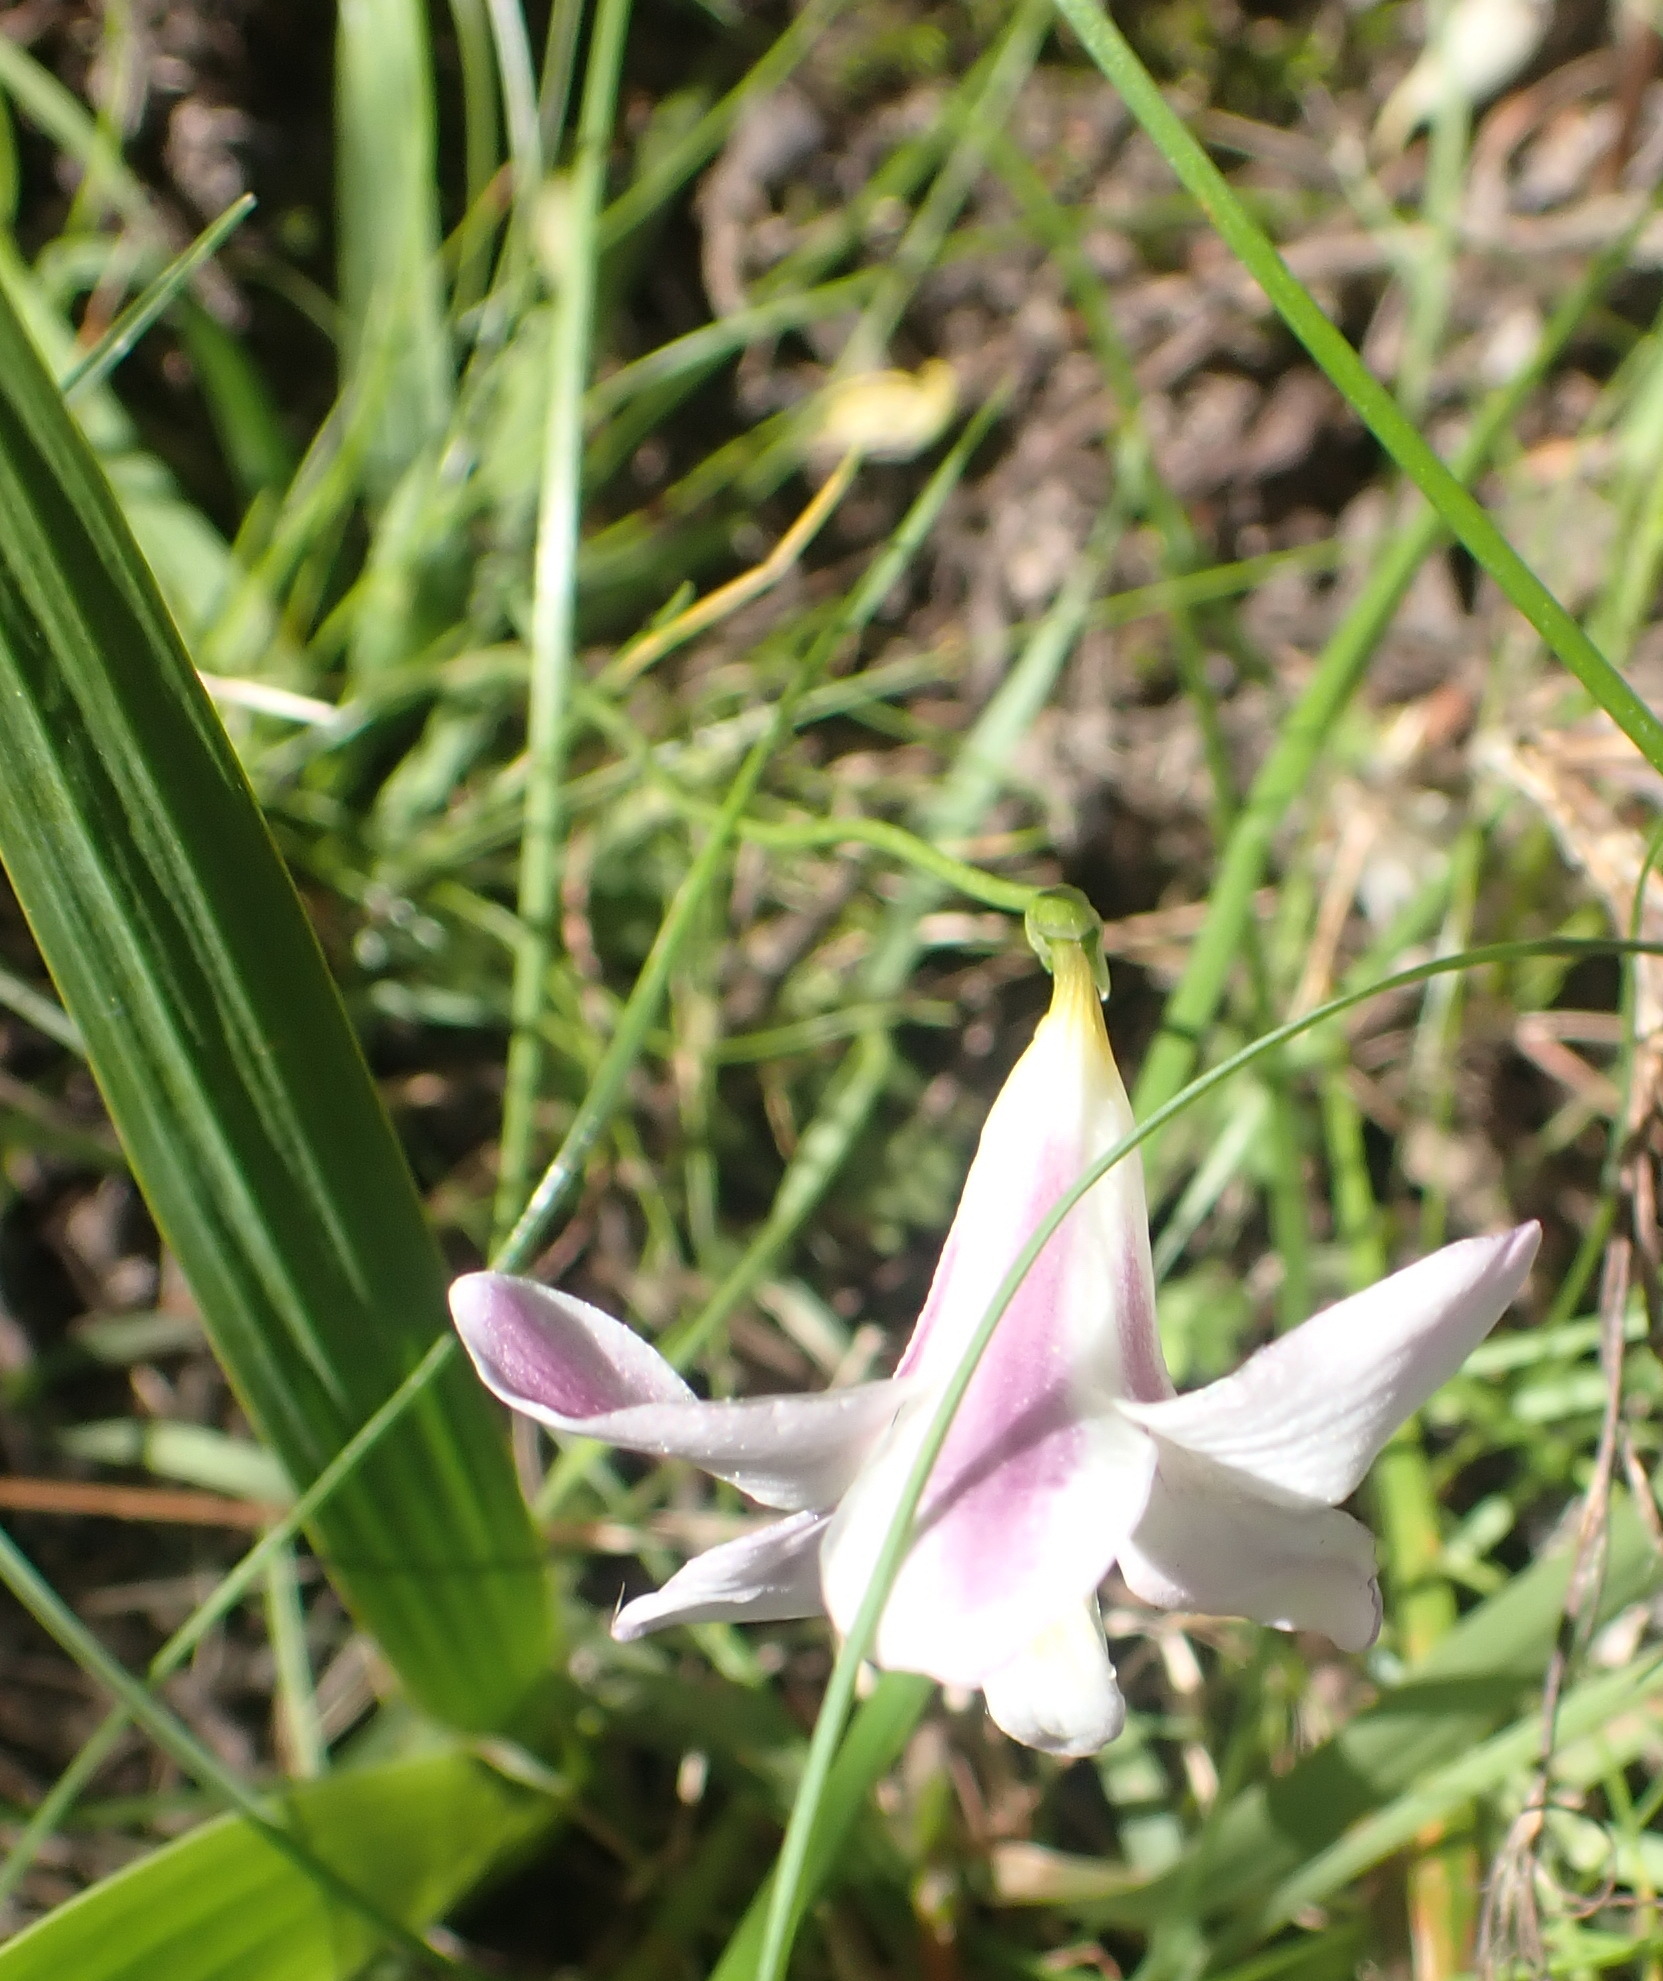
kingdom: Plantae
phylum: Tracheophyta
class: Liliopsida
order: Asparagales
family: Iridaceae
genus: Freesia
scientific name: Freesia leichtlinii
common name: Freesia
